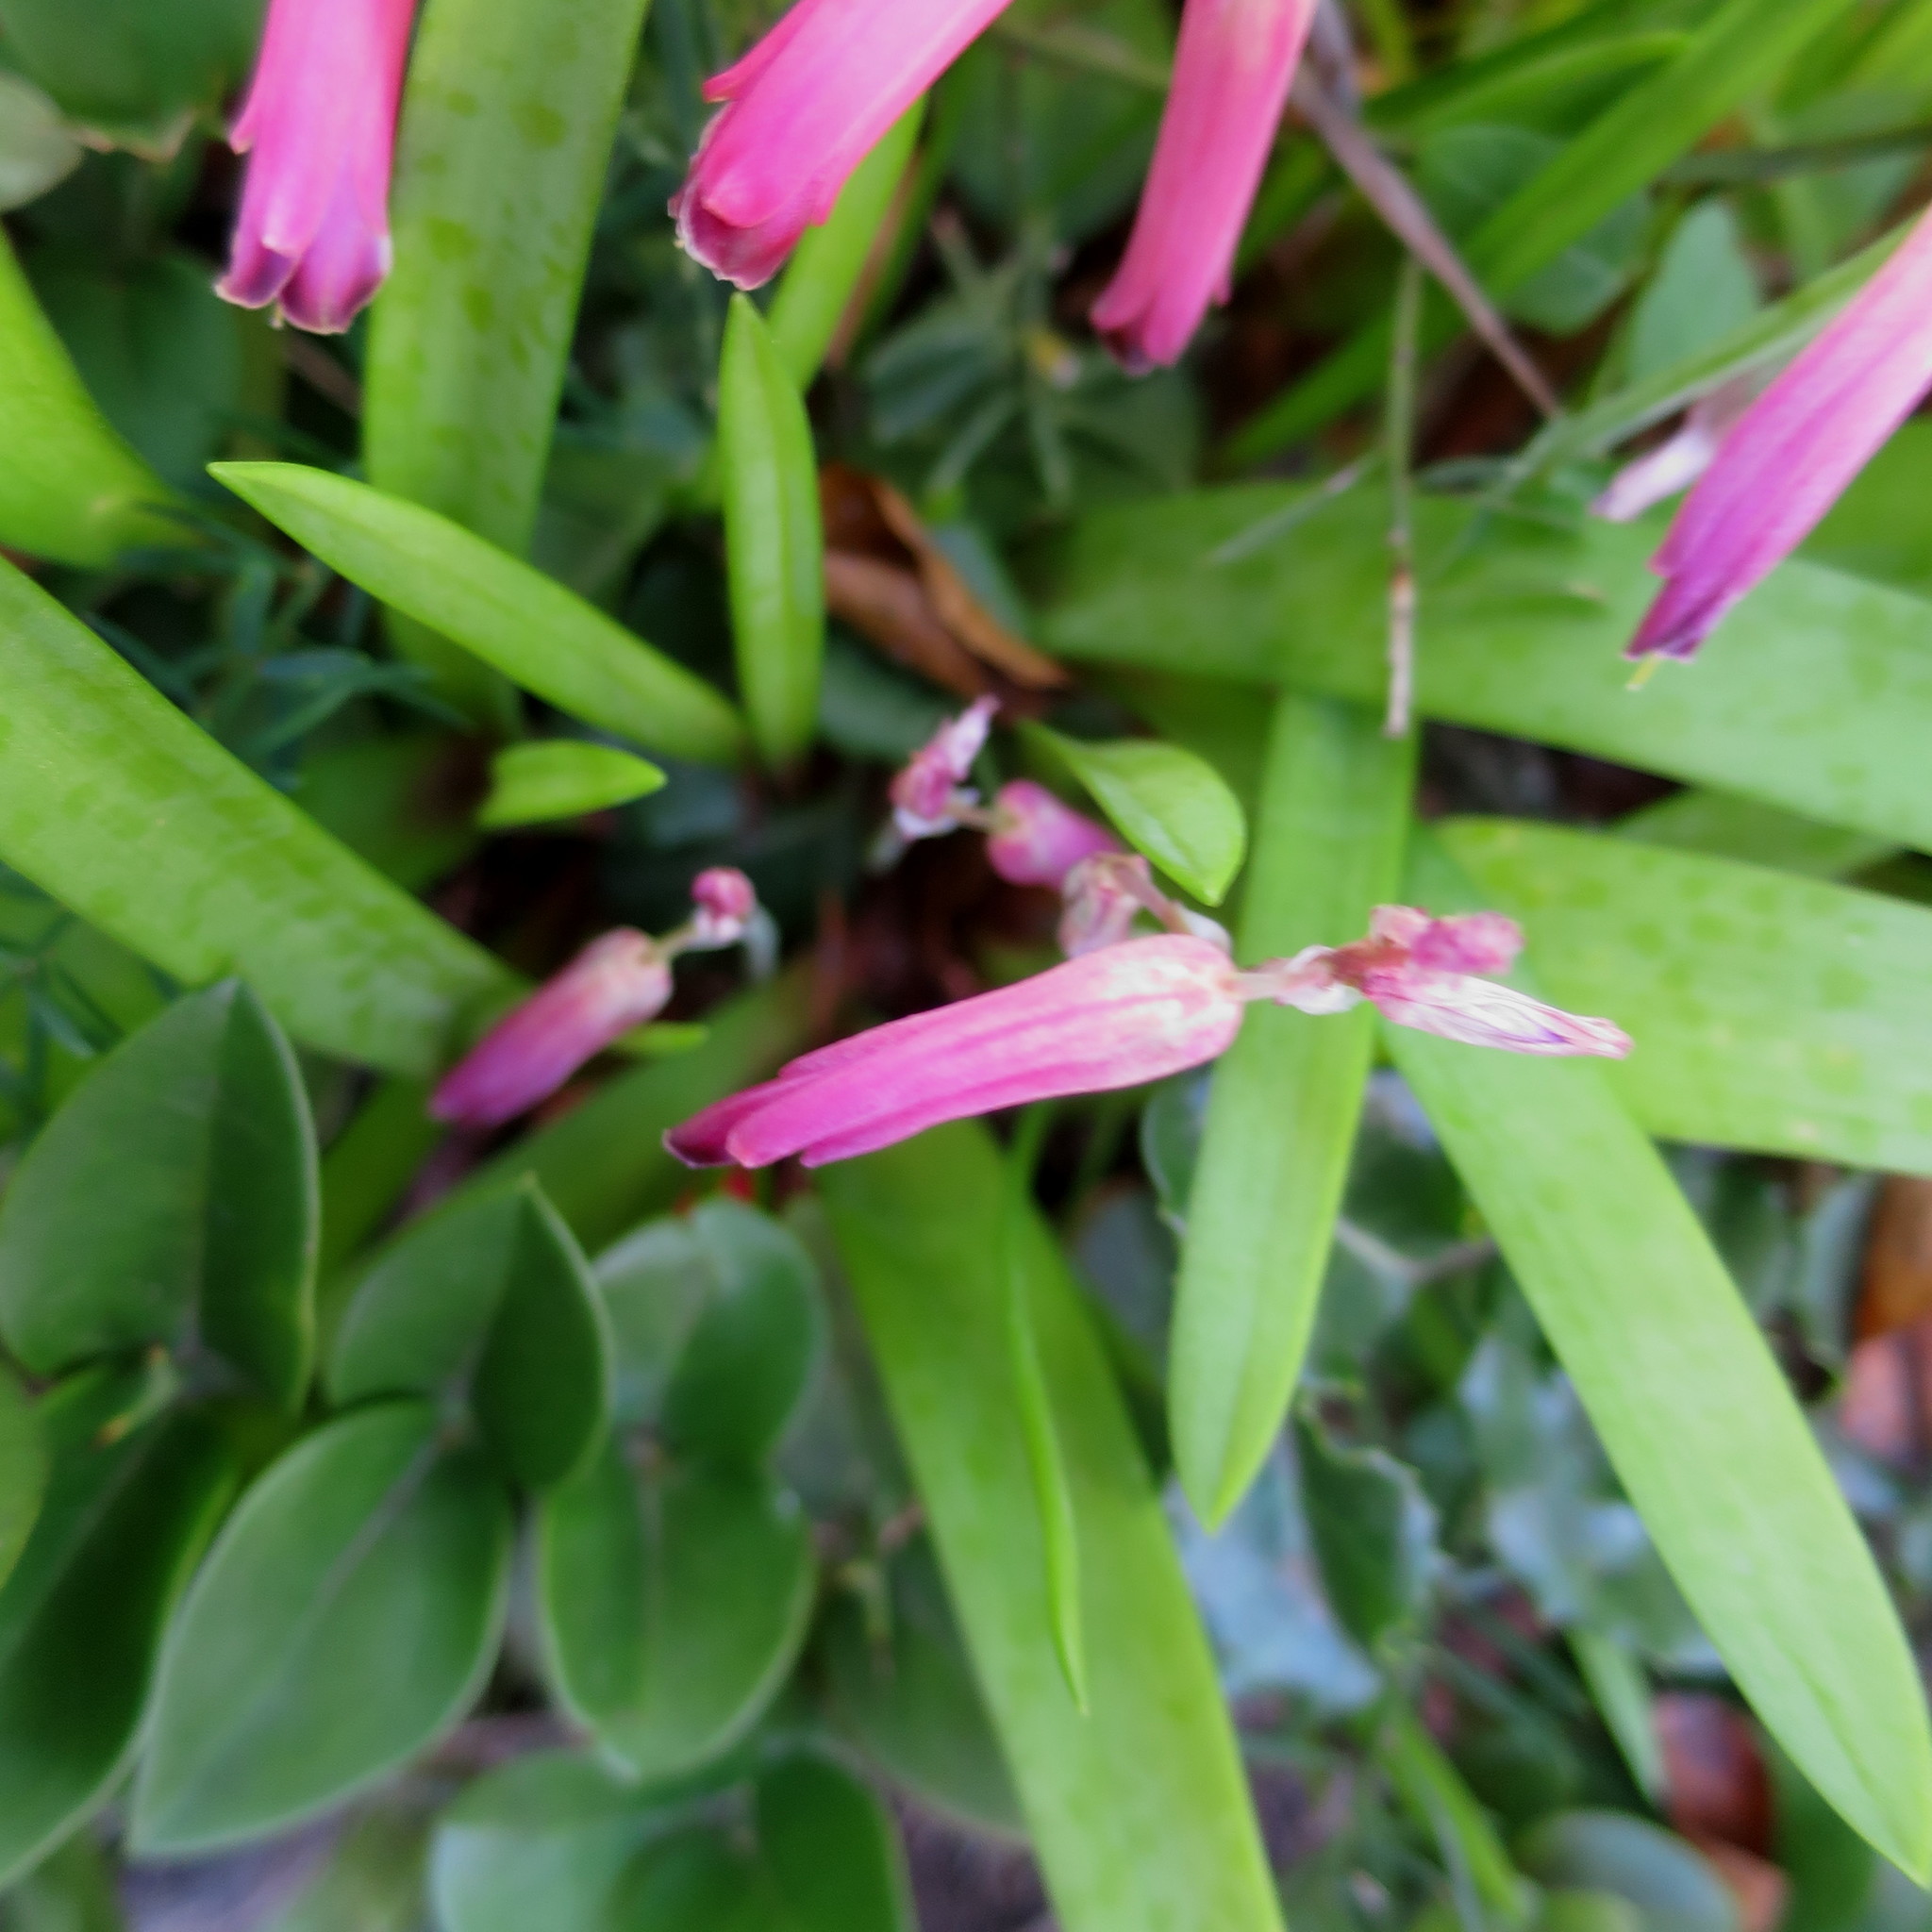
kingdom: Plantae
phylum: Tracheophyta
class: Liliopsida
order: Asparagales
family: Asparagaceae
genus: Lachenalia
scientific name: Lachenalia punctata
